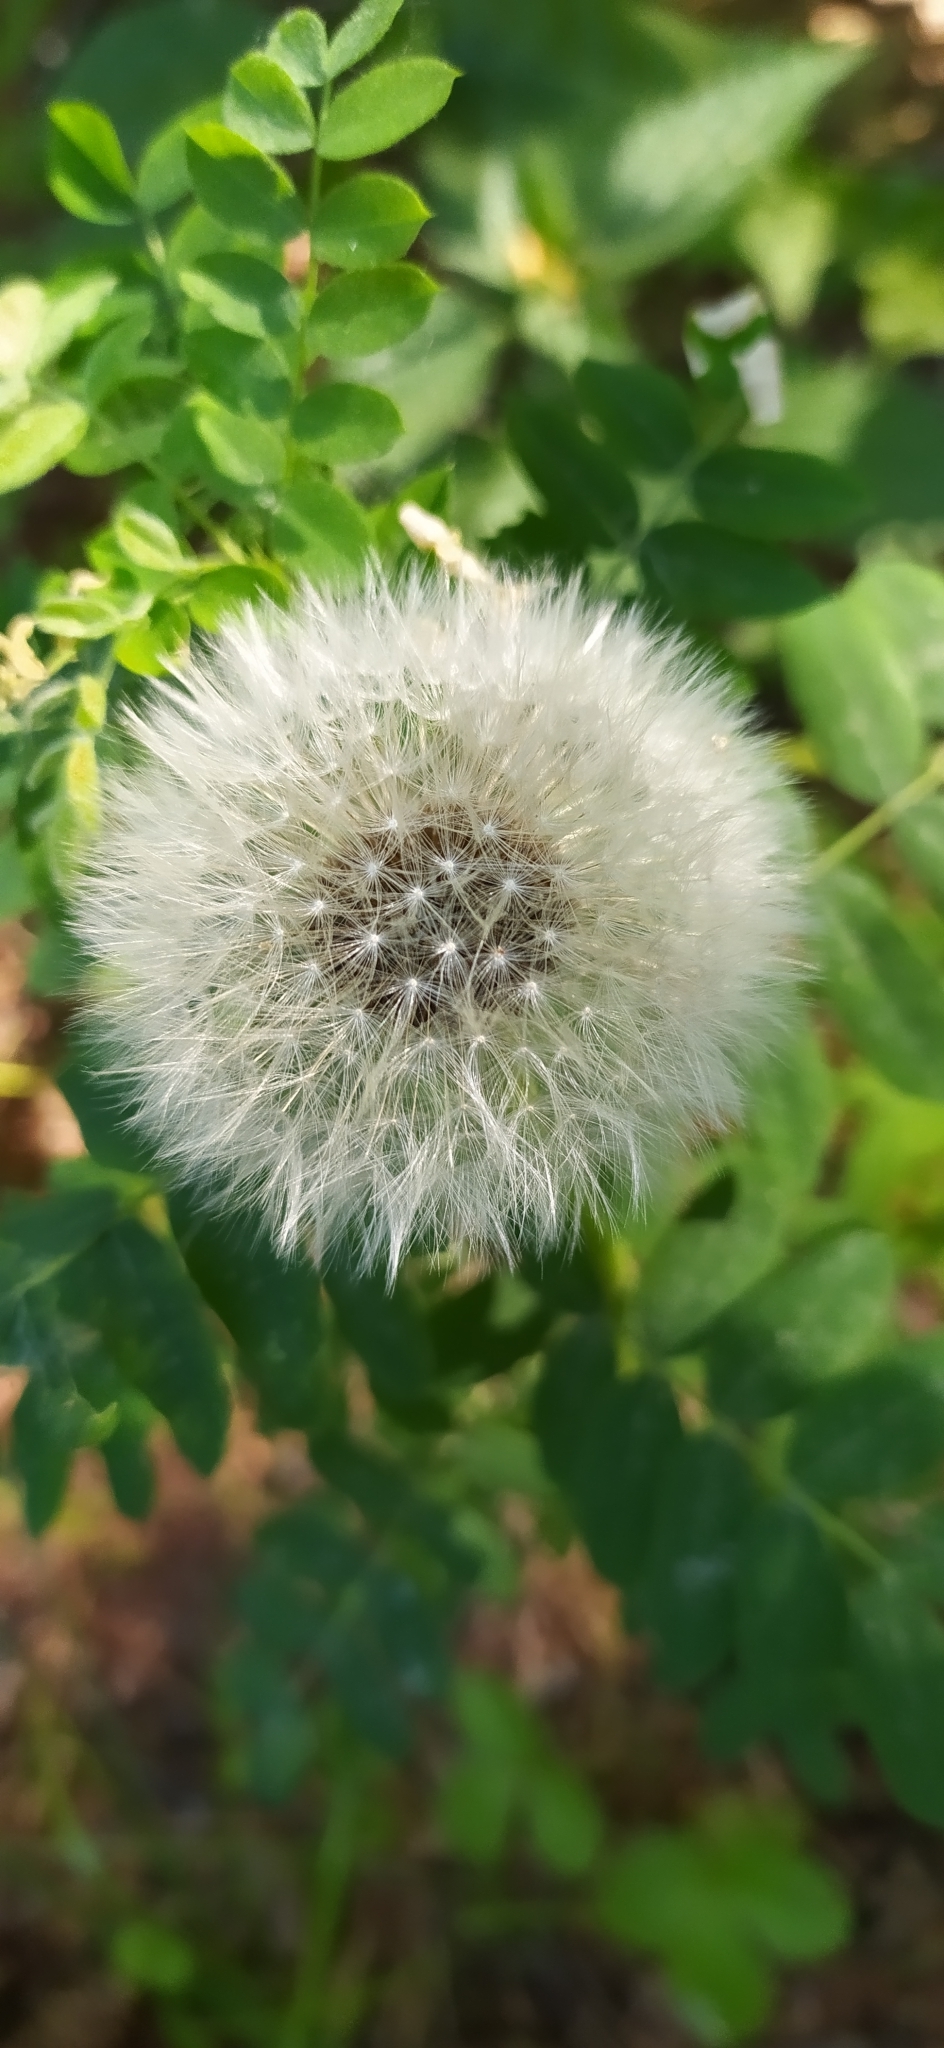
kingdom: Plantae
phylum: Tracheophyta
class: Magnoliopsida
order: Asterales
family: Asteraceae
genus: Taraxacum
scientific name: Taraxacum officinale
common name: Common dandelion
